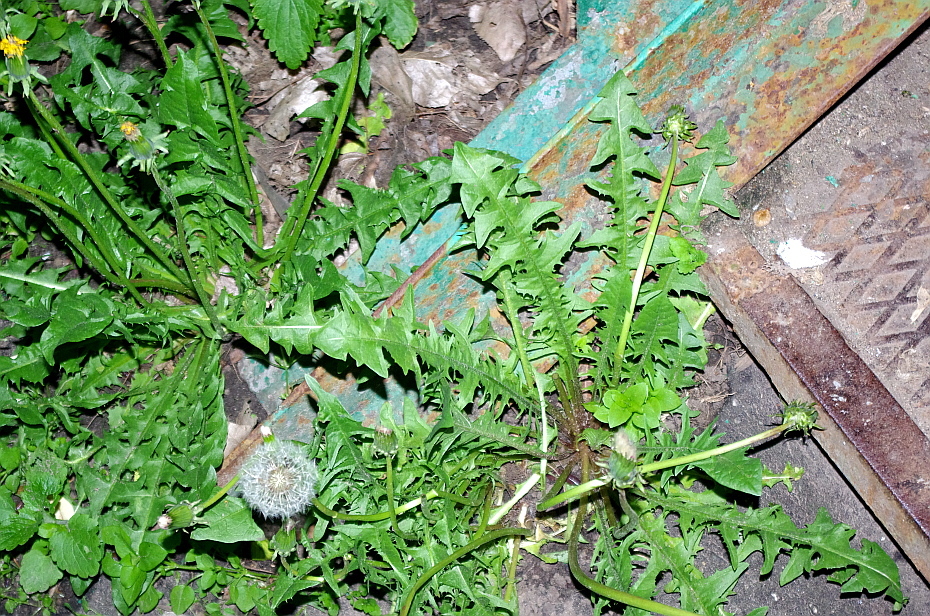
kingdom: Plantae
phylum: Tracheophyta
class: Magnoliopsida
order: Asterales
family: Asteraceae
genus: Taraxacum
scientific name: Taraxacum officinale
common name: Common dandelion
